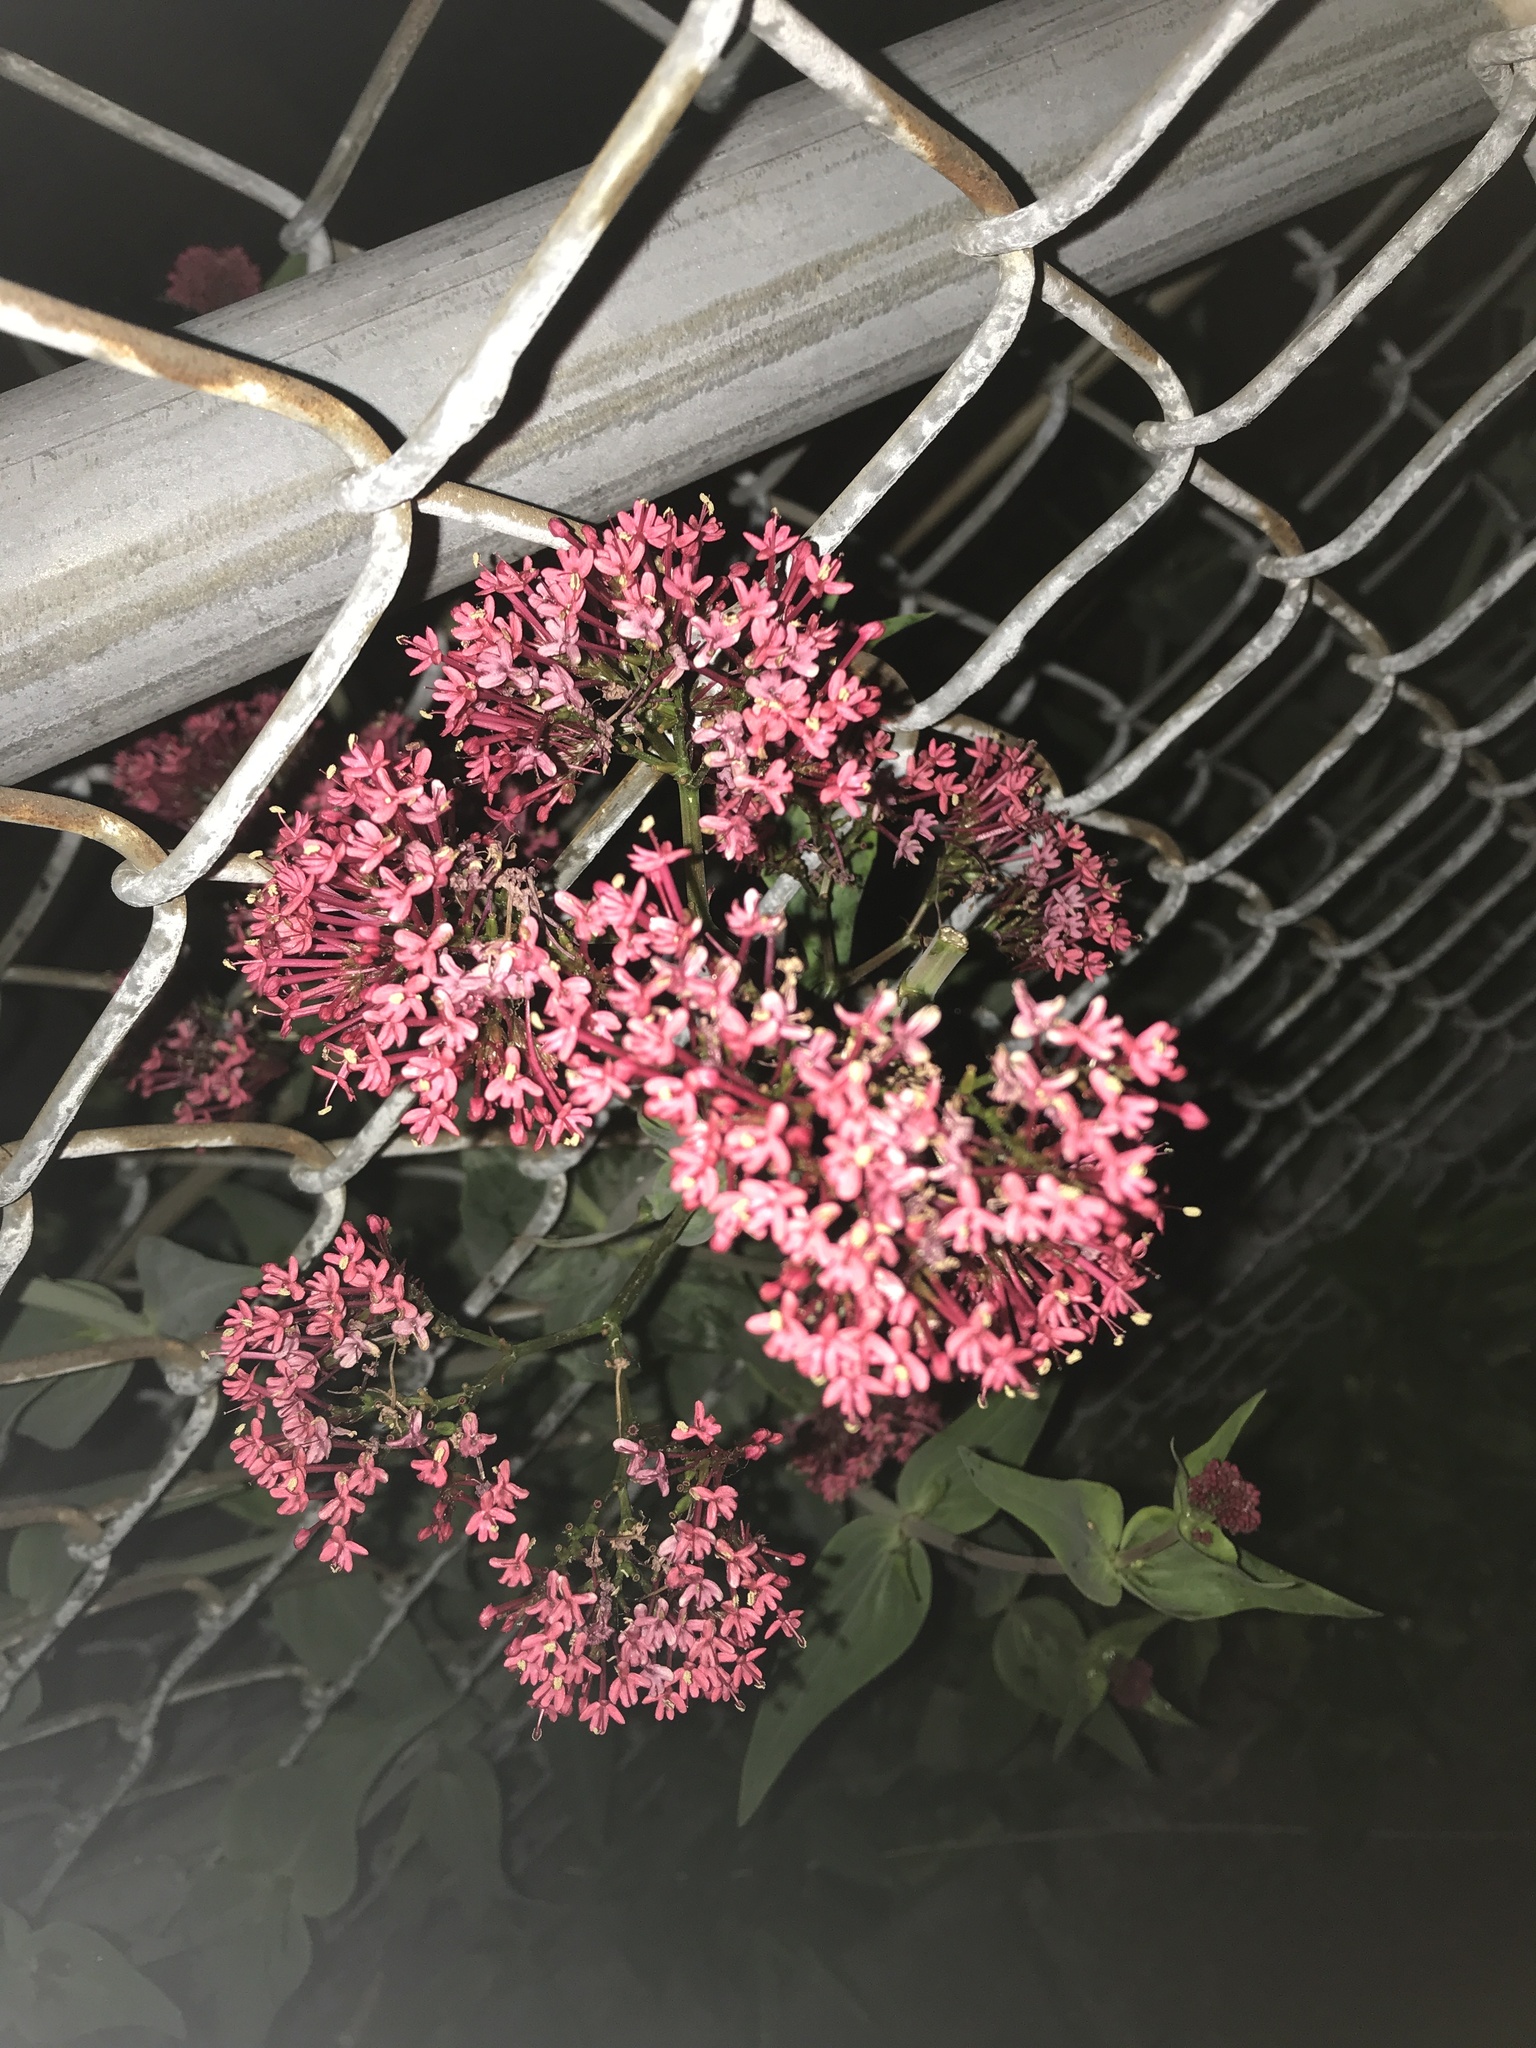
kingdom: Plantae
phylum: Tracheophyta
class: Magnoliopsida
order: Dipsacales
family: Caprifoliaceae
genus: Centranthus
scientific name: Centranthus ruber
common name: Red valerian
